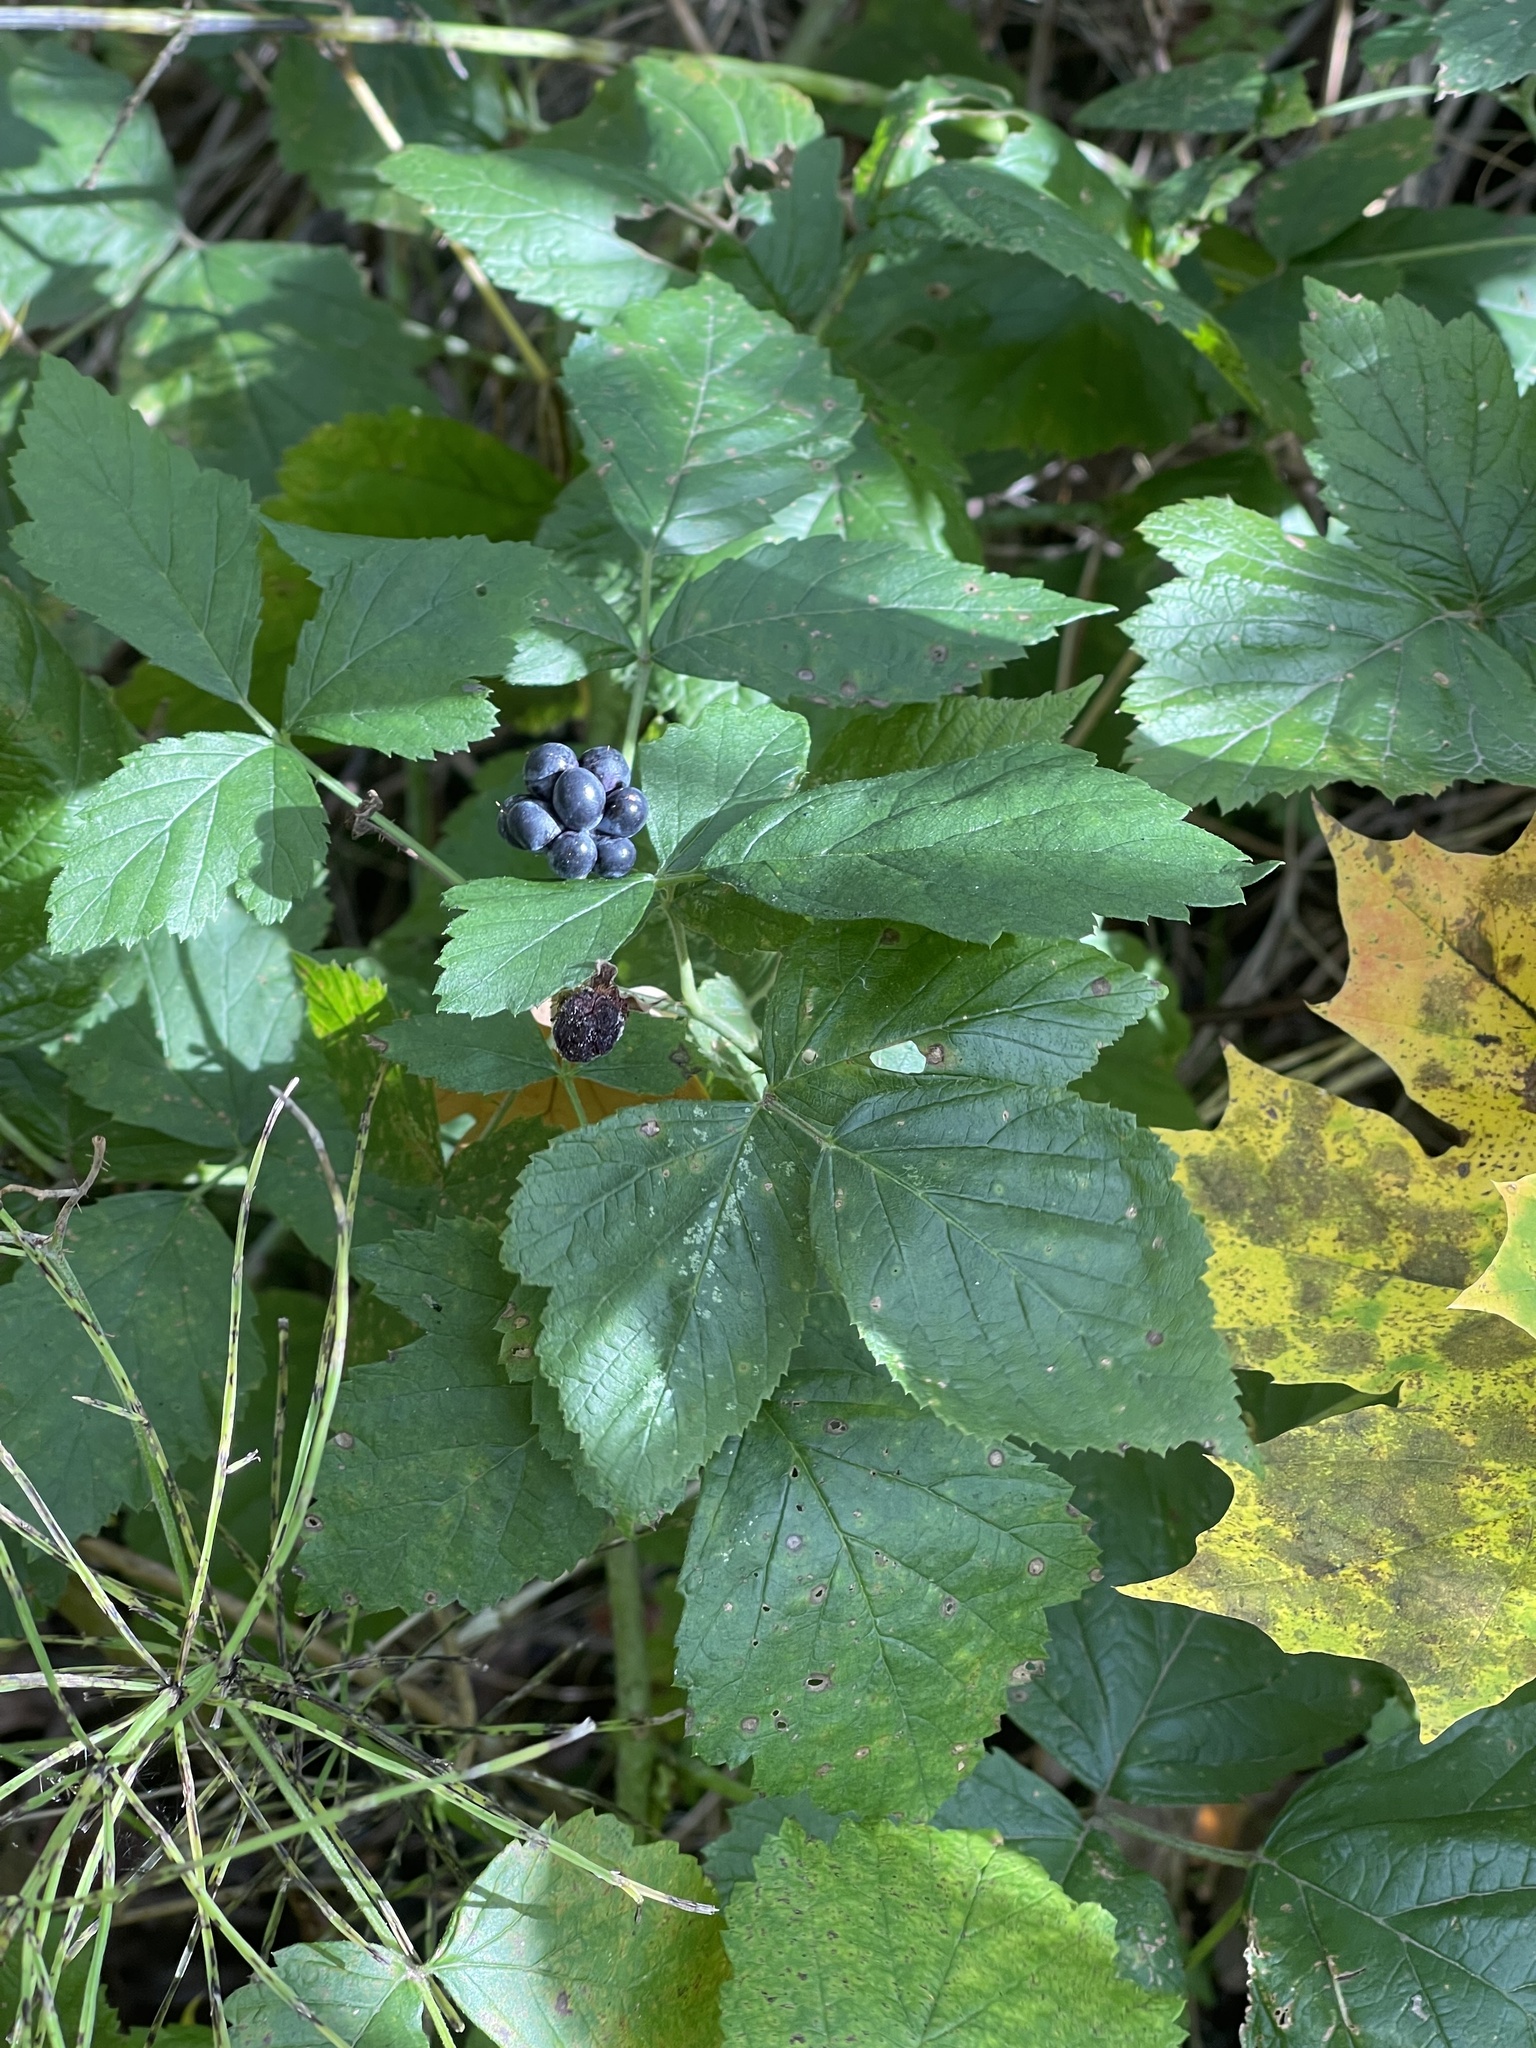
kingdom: Plantae
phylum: Tracheophyta
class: Magnoliopsida
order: Rosales
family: Rosaceae
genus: Rubus
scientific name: Rubus caesius
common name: Dewberry
